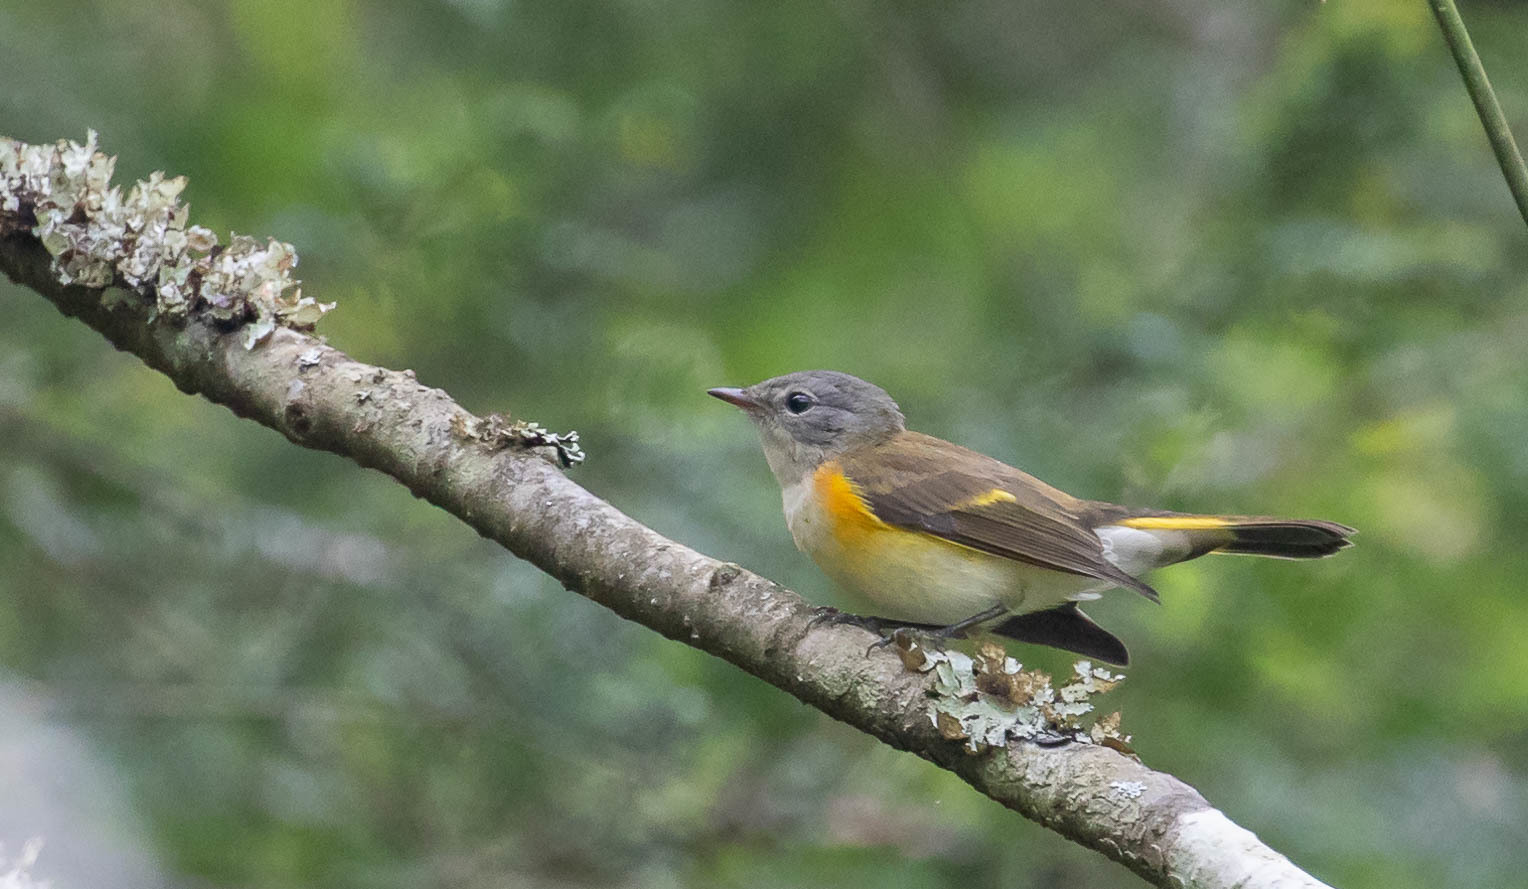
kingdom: Animalia
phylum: Chordata
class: Aves
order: Passeriformes
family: Parulidae
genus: Setophaga
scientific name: Setophaga ruticilla
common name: American redstart
